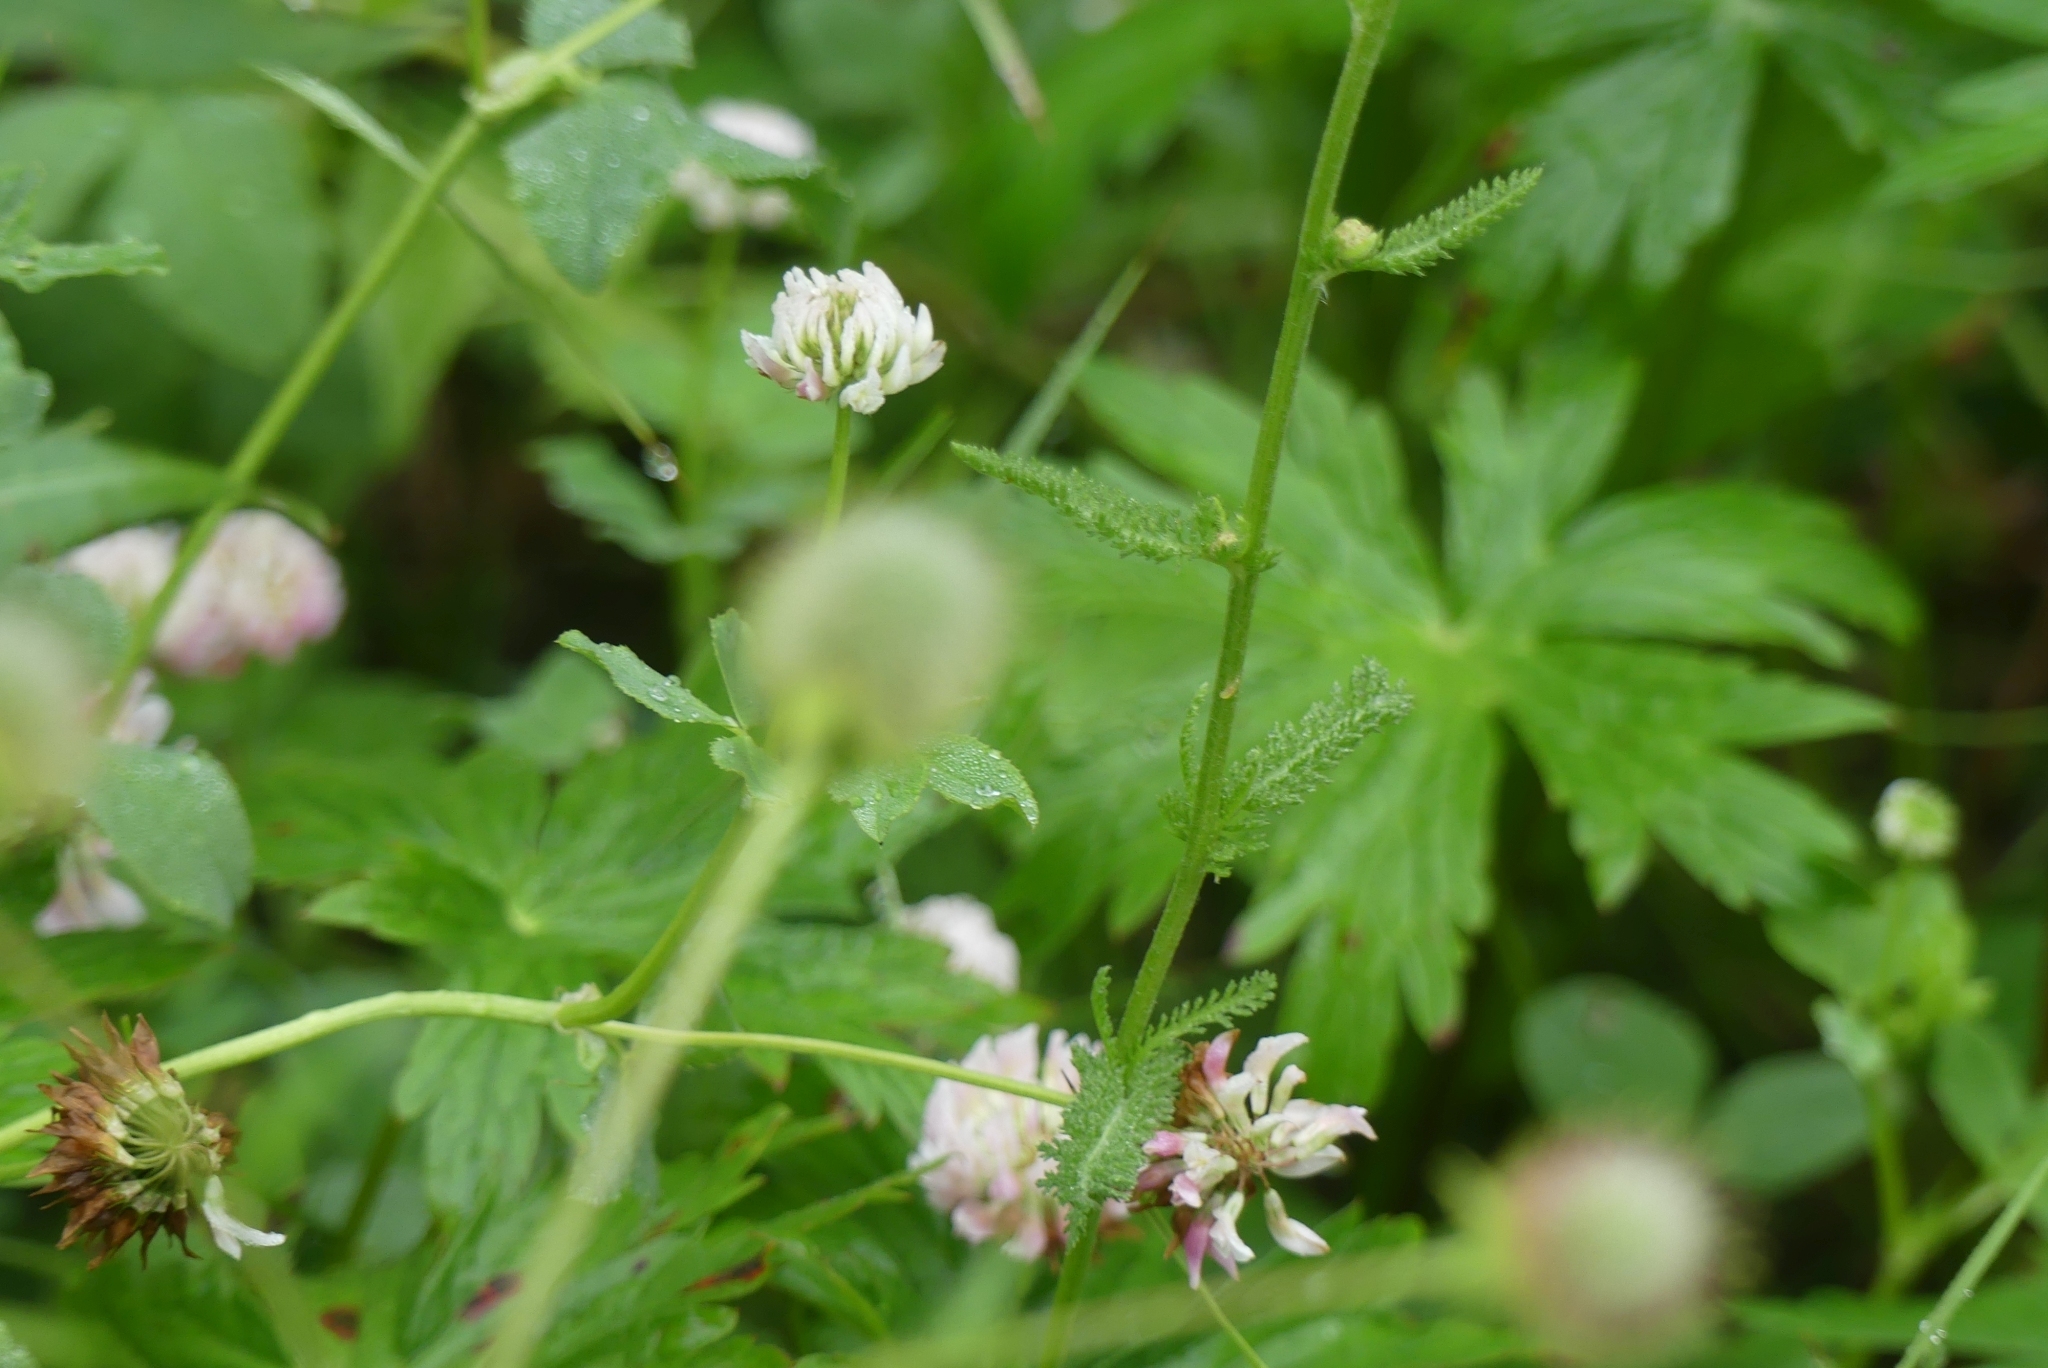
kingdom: Plantae
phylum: Tracheophyta
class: Magnoliopsida
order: Asterales
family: Asteraceae
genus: Achillea
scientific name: Achillea millefolium
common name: Yarrow
